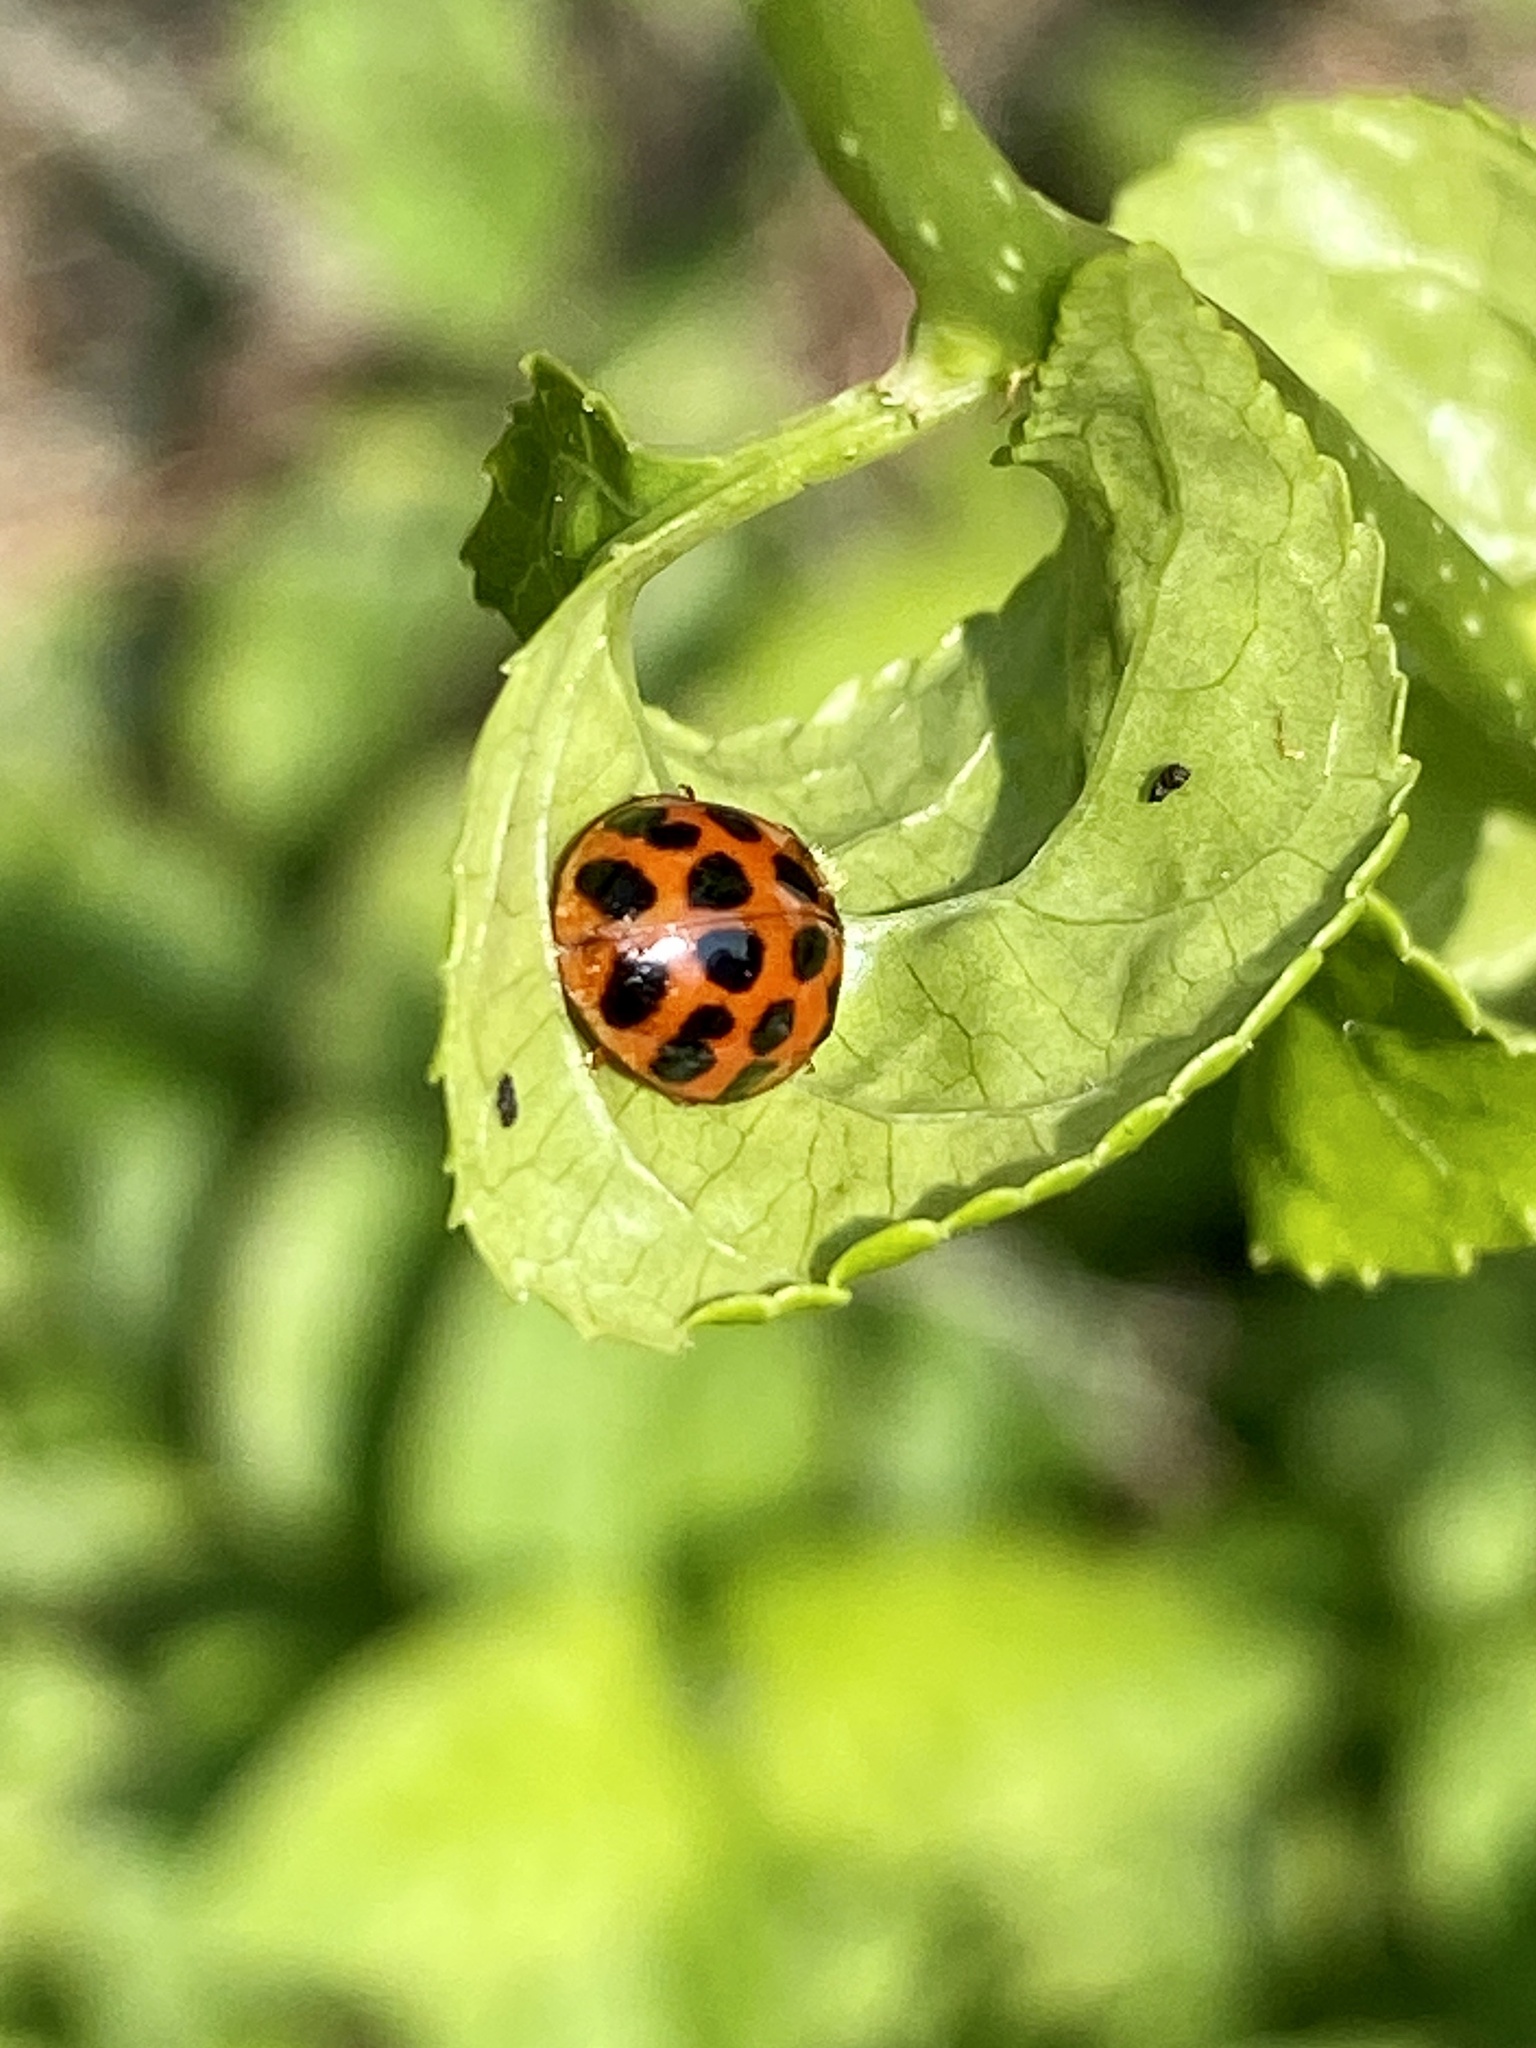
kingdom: Animalia
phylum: Arthropoda
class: Insecta
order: Coleoptera
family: Coccinellidae
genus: Harmonia
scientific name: Harmonia axyridis
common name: Harlequin ladybird
